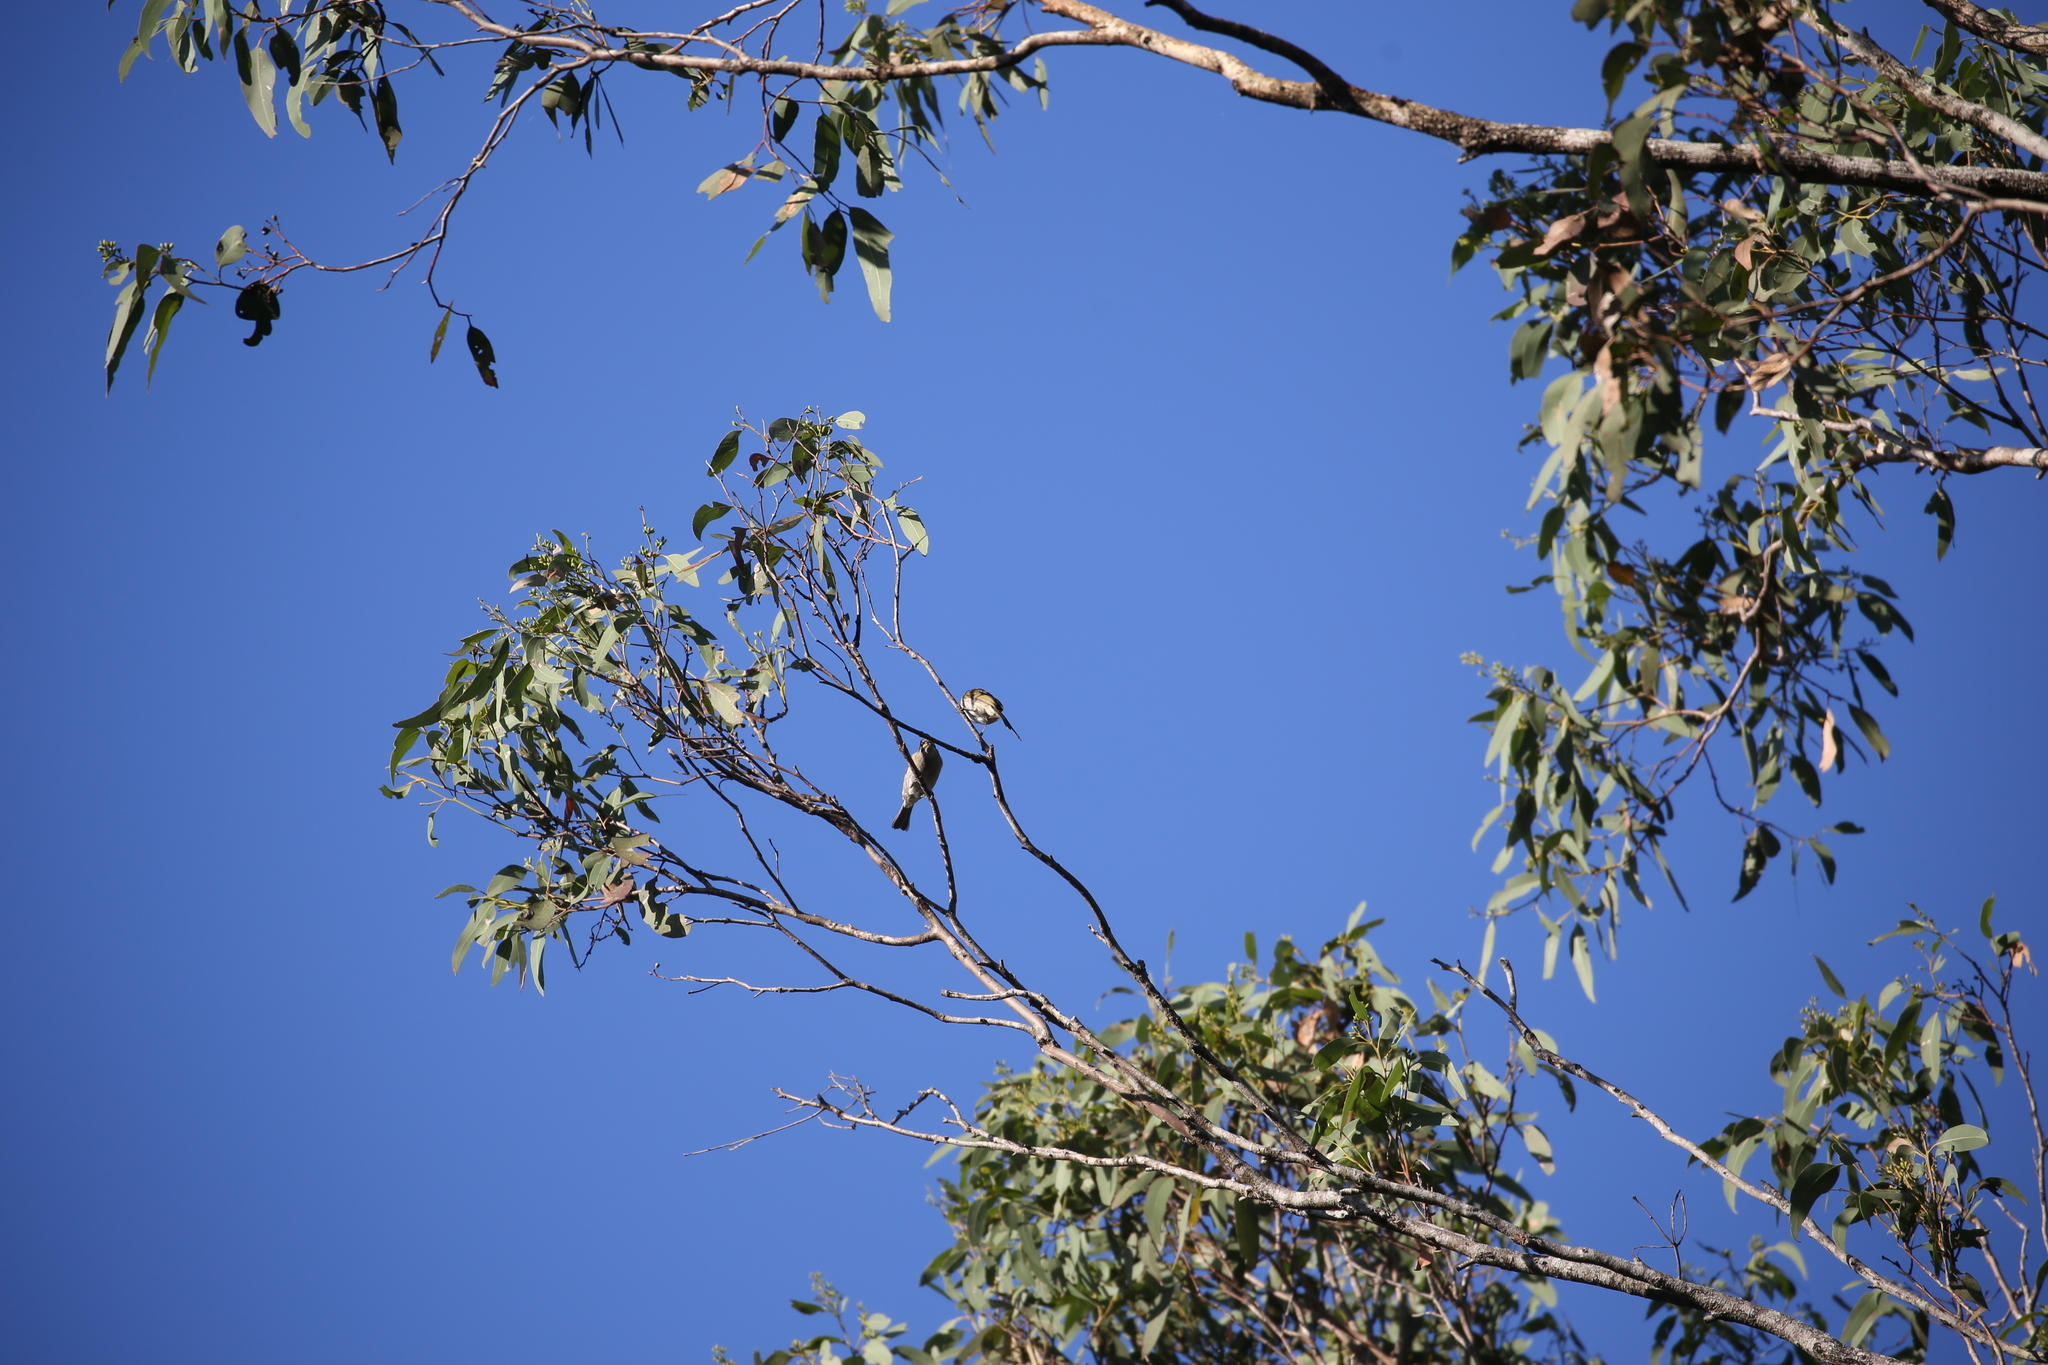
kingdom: Animalia
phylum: Chordata
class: Aves
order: Passeriformes
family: Meliphagidae
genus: Caligavis
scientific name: Caligavis chrysops
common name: Yellow-faced honeyeater
